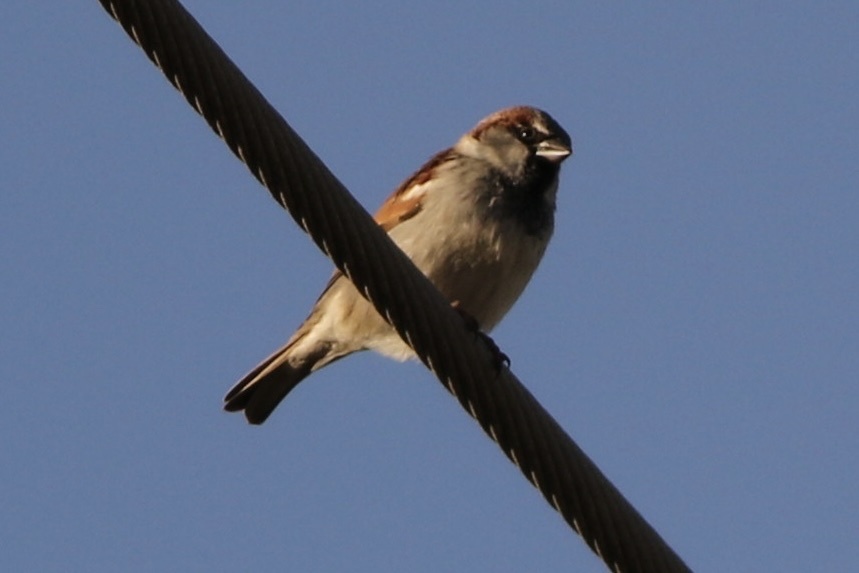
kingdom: Animalia
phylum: Chordata
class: Aves
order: Passeriformes
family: Passeridae
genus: Passer
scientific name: Passer domesticus
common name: House sparrow
